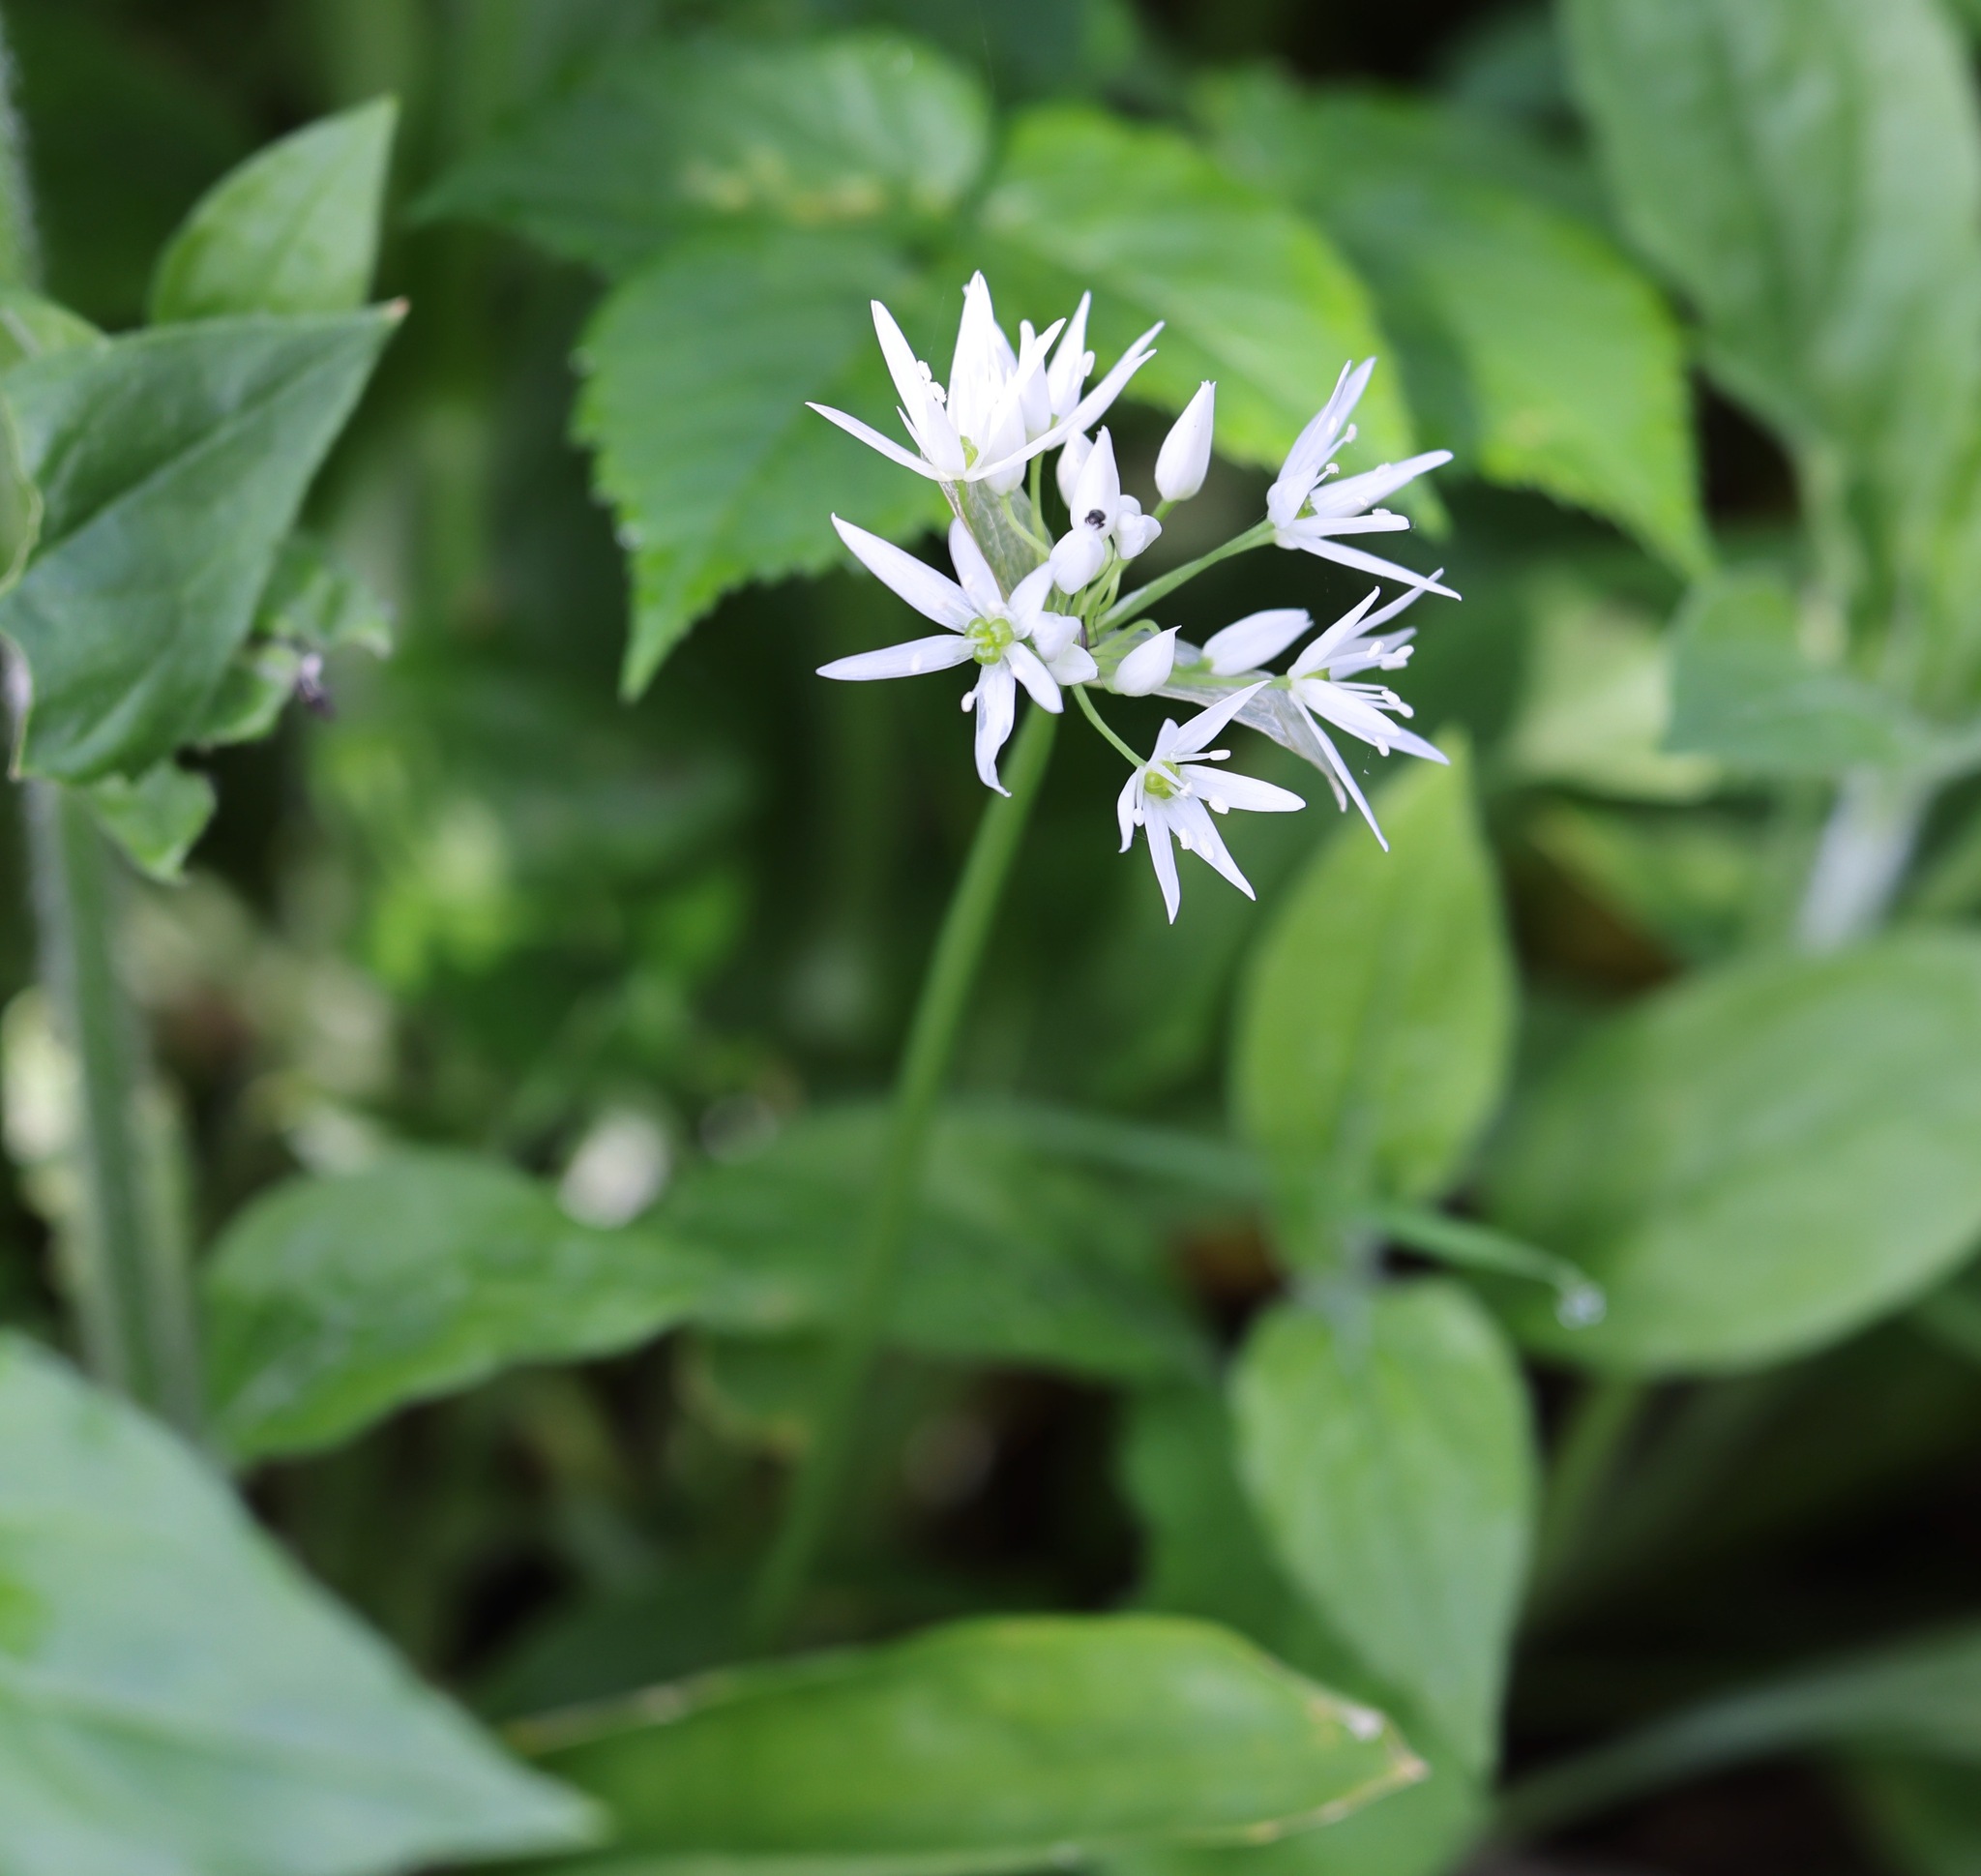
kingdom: Plantae
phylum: Tracheophyta
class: Liliopsida
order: Asparagales
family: Amaryllidaceae
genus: Allium
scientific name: Allium ursinum
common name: Ramsons
